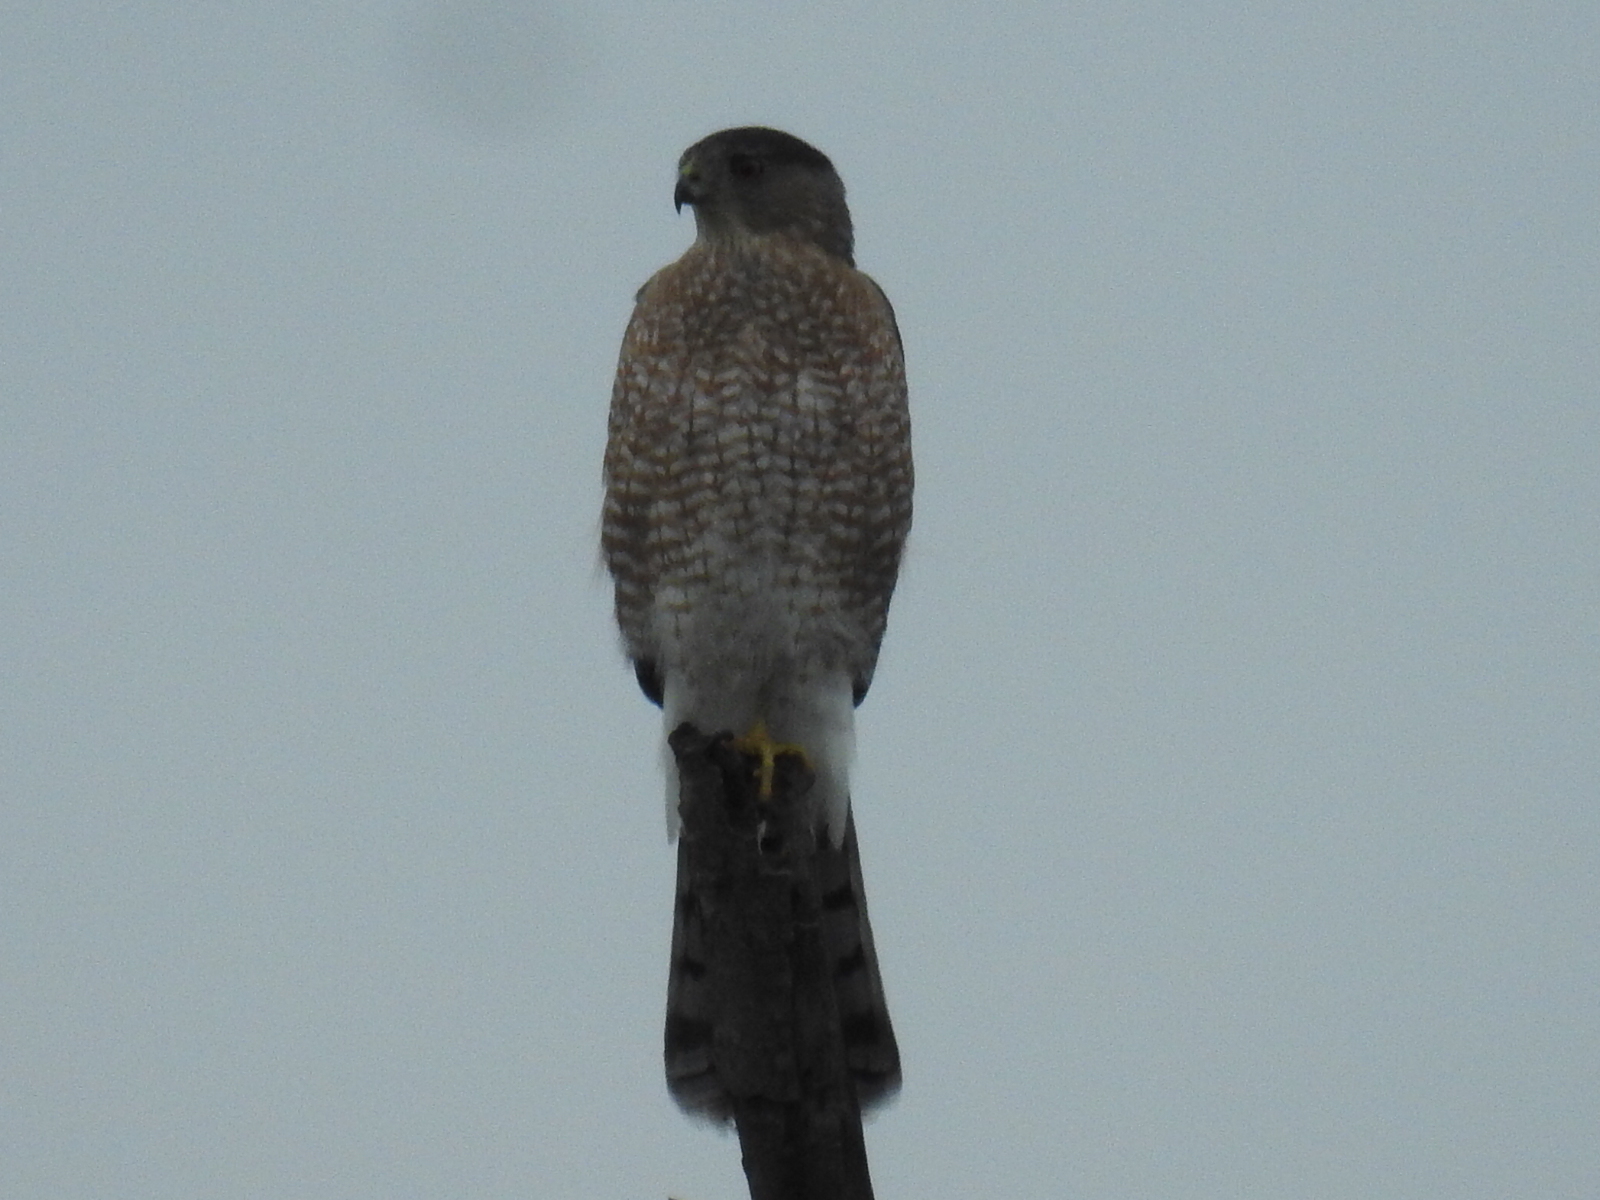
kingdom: Animalia
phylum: Chordata
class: Aves
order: Accipitriformes
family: Accipitridae
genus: Accipiter
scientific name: Accipiter cooperii
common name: Cooper's hawk
